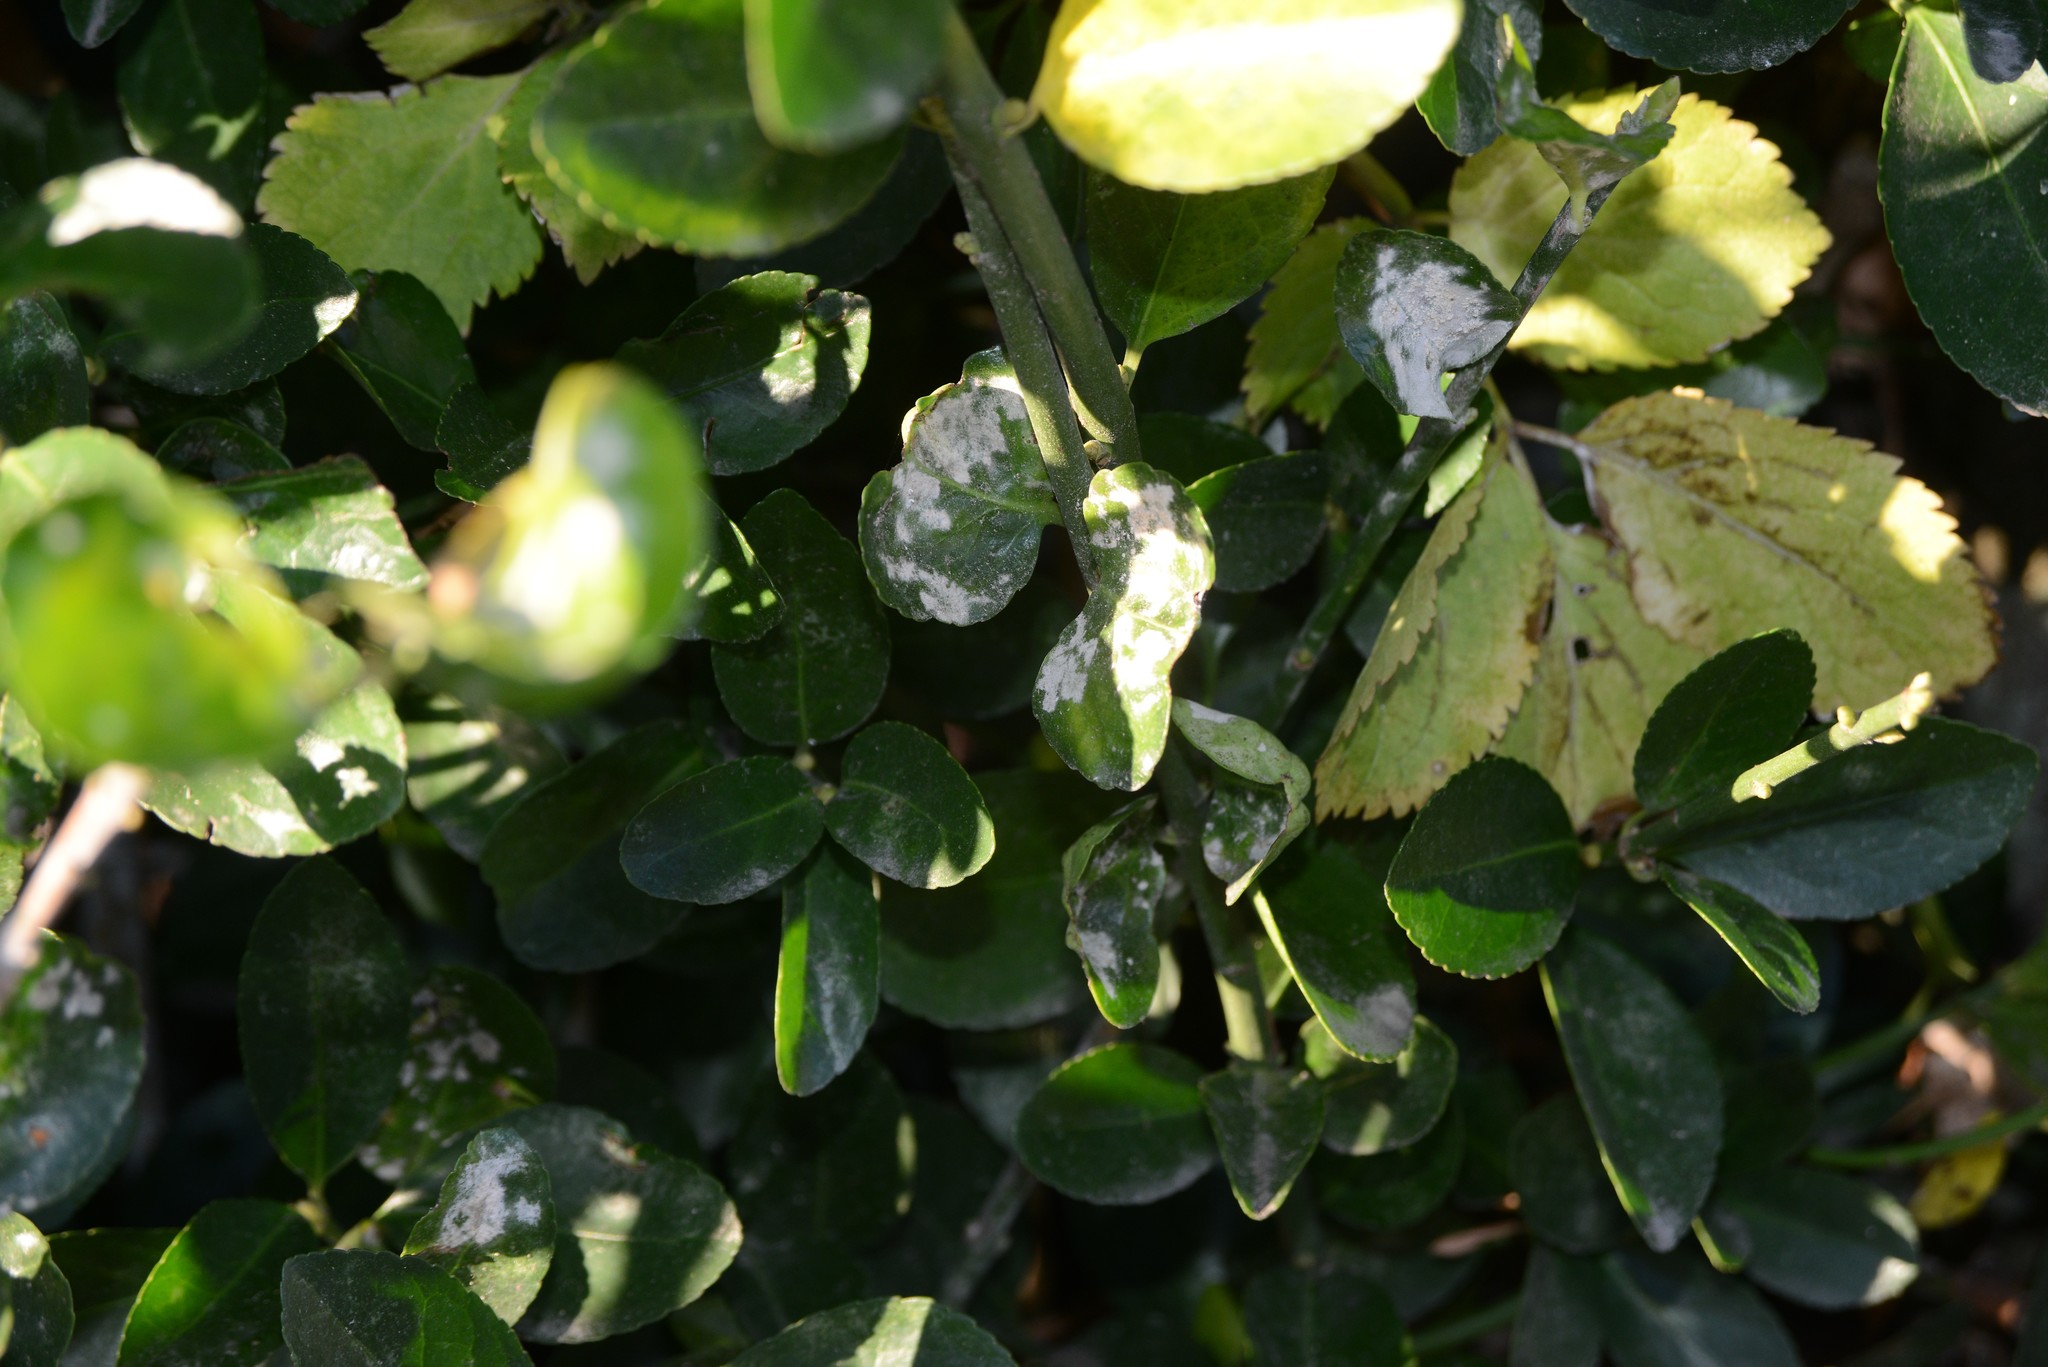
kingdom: Fungi
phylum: Ascomycota
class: Leotiomycetes
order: Helotiales
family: Erysiphaceae
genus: Erysiphe
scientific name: Erysiphe euonymicola
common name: Spindletree mildew
